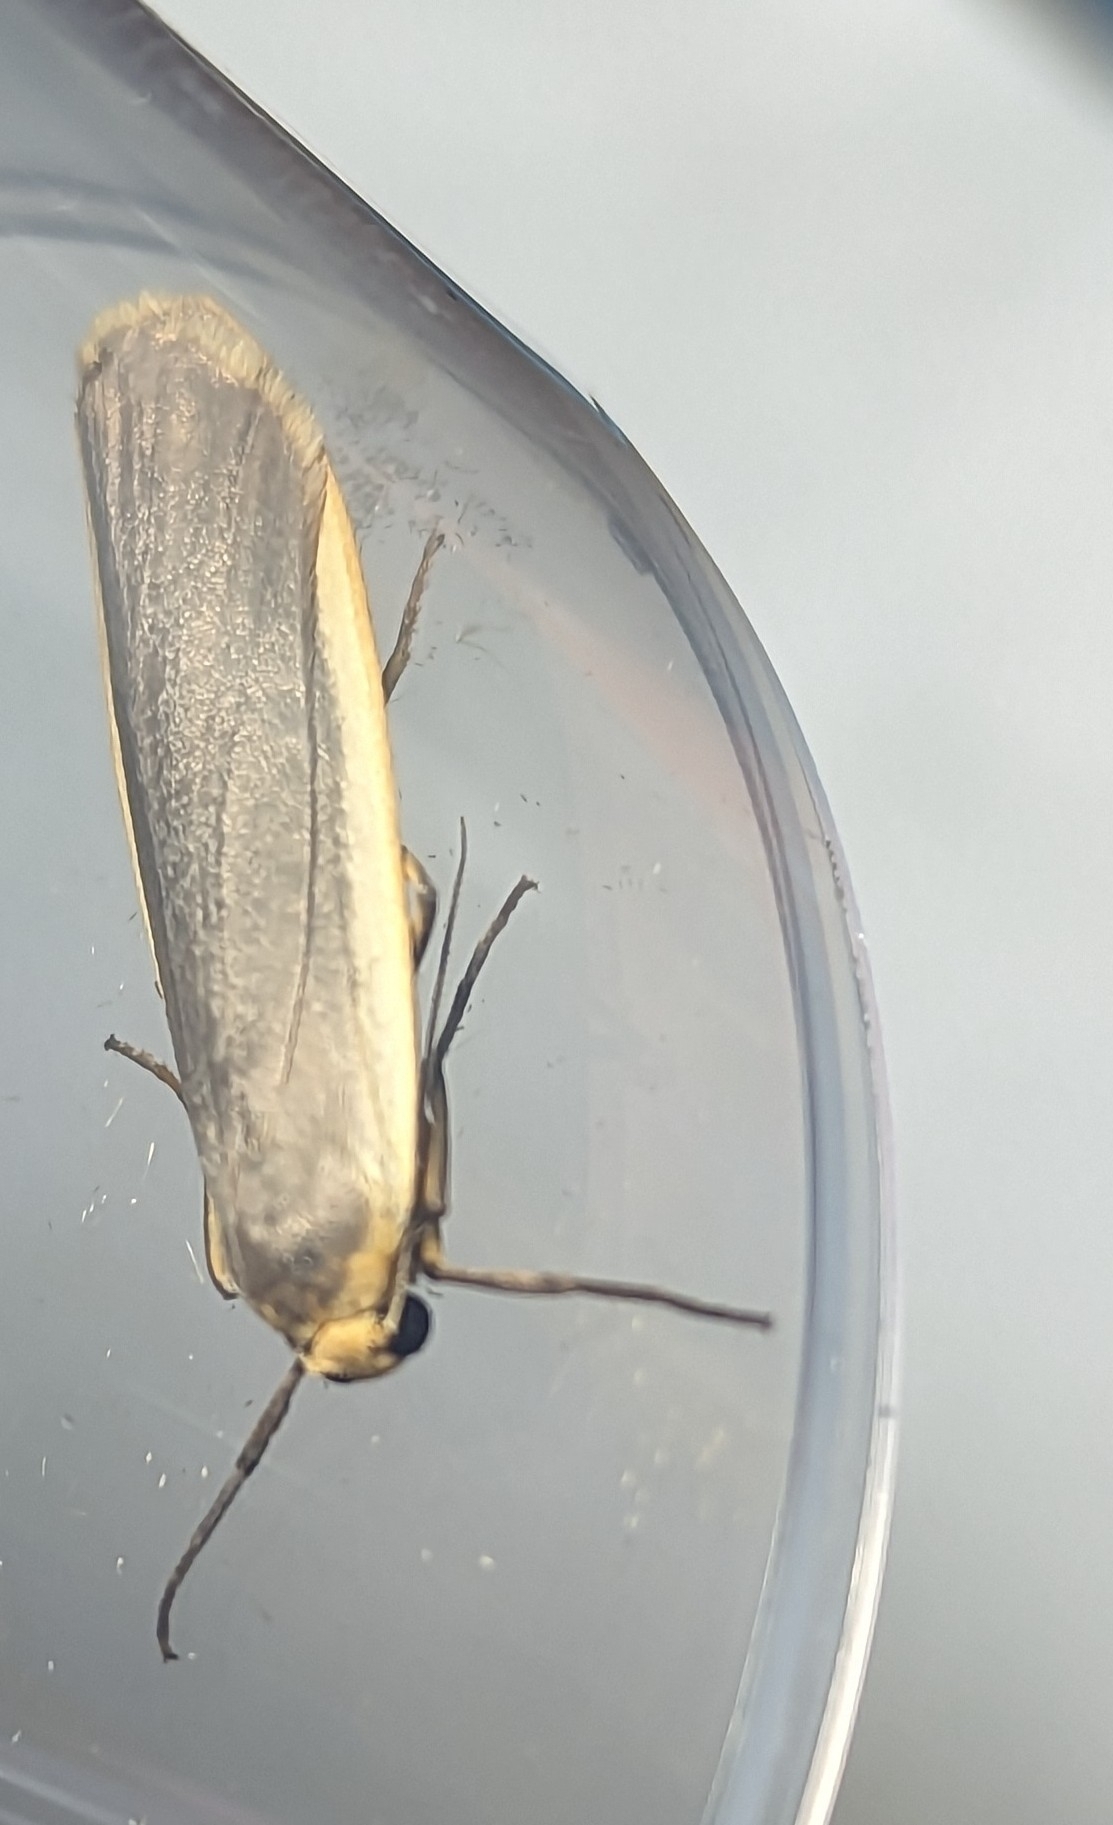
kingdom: Animalia
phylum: Arthropoda
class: Insecta
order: Lepidoptera
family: Erebidae
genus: Nyea
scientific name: Nyea lurideola
